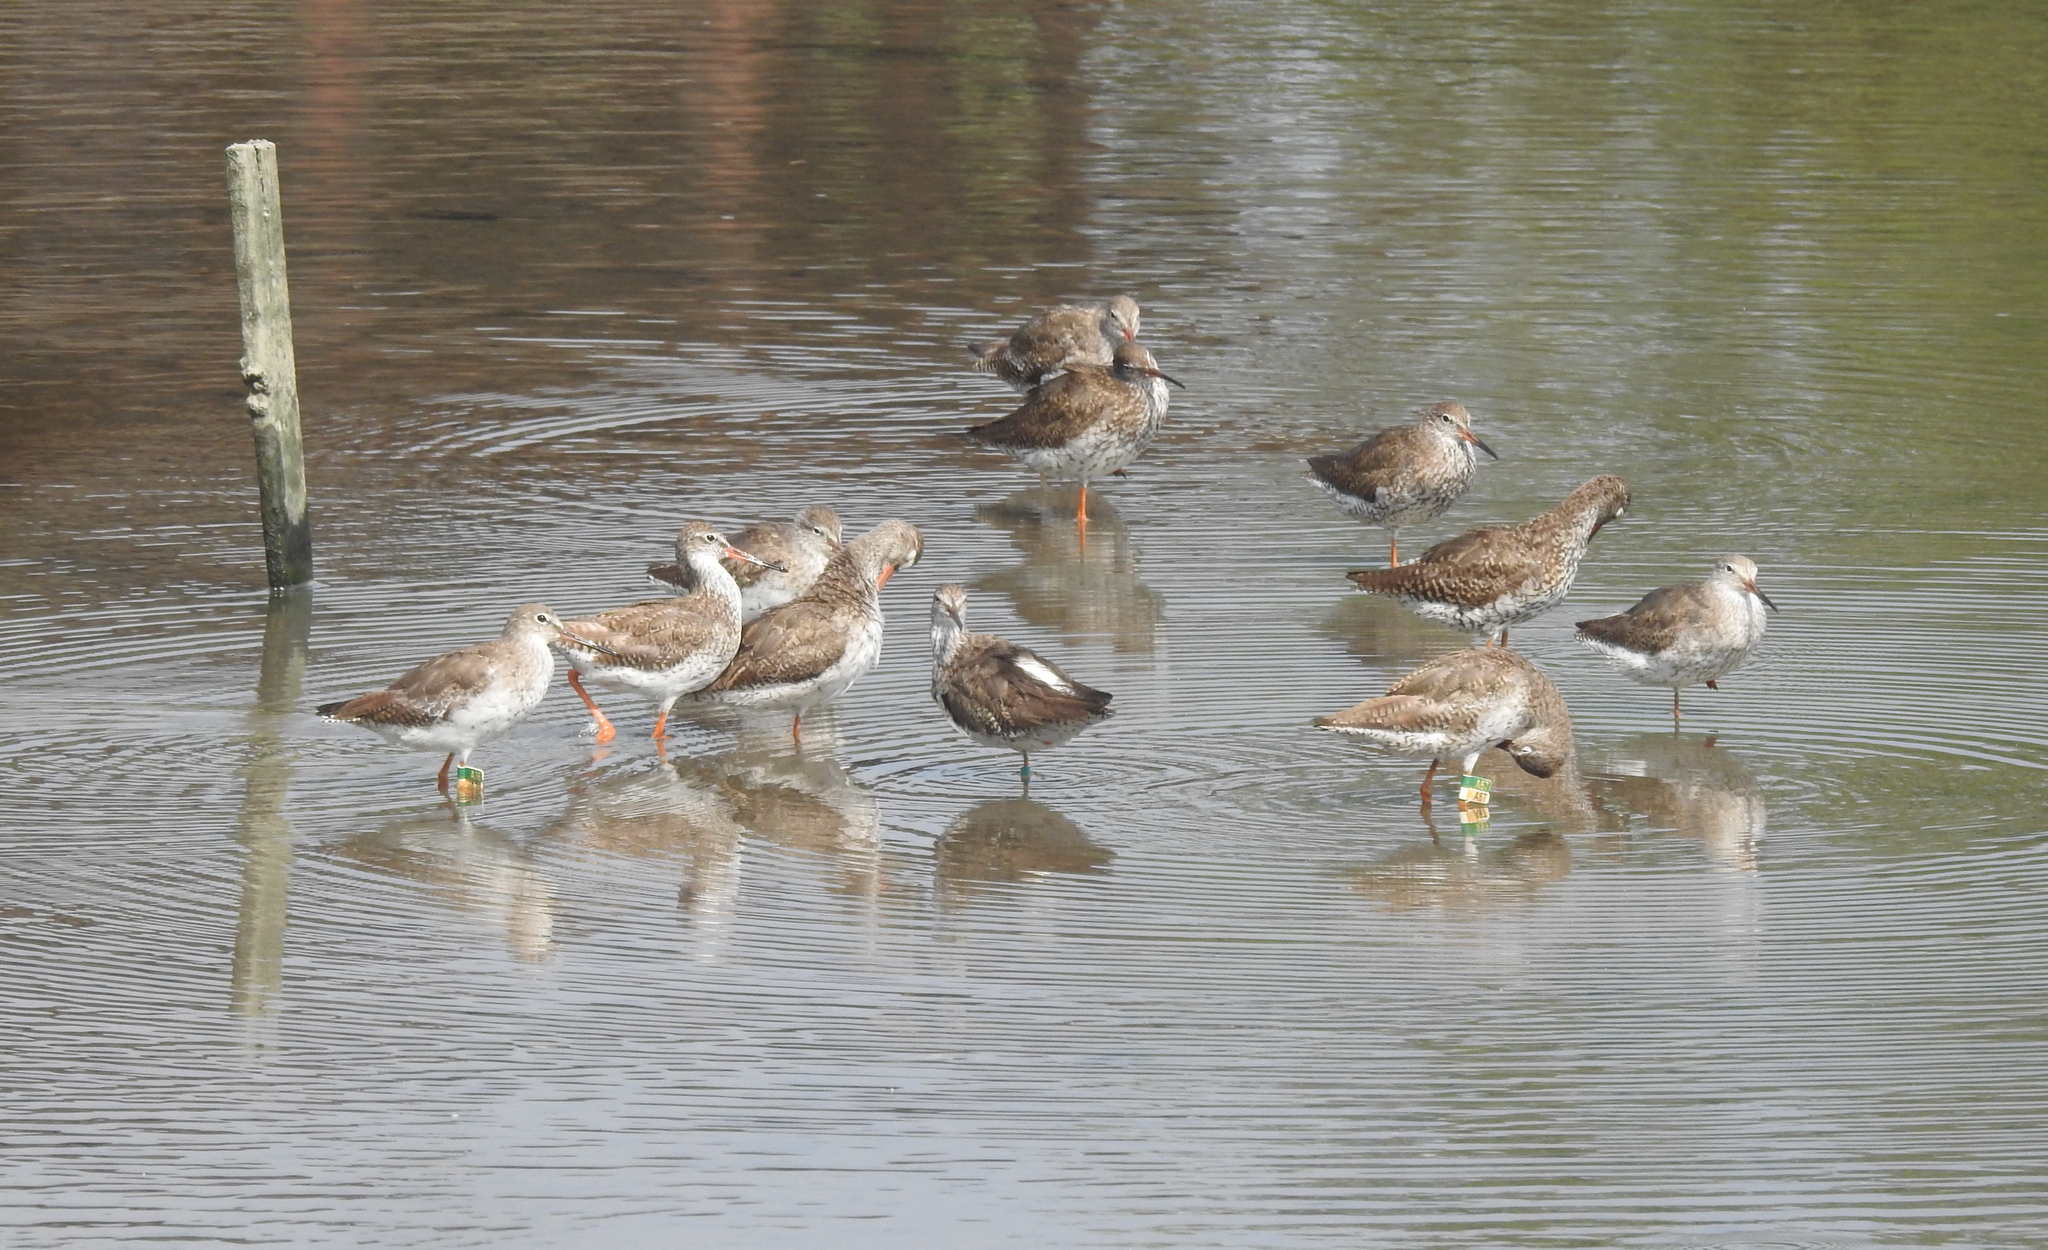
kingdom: Animalia
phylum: Chordata
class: Aves
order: Charadriiformes
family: Scolopacidae
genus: Tringa
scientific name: Tringa totanus
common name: Common redshank
